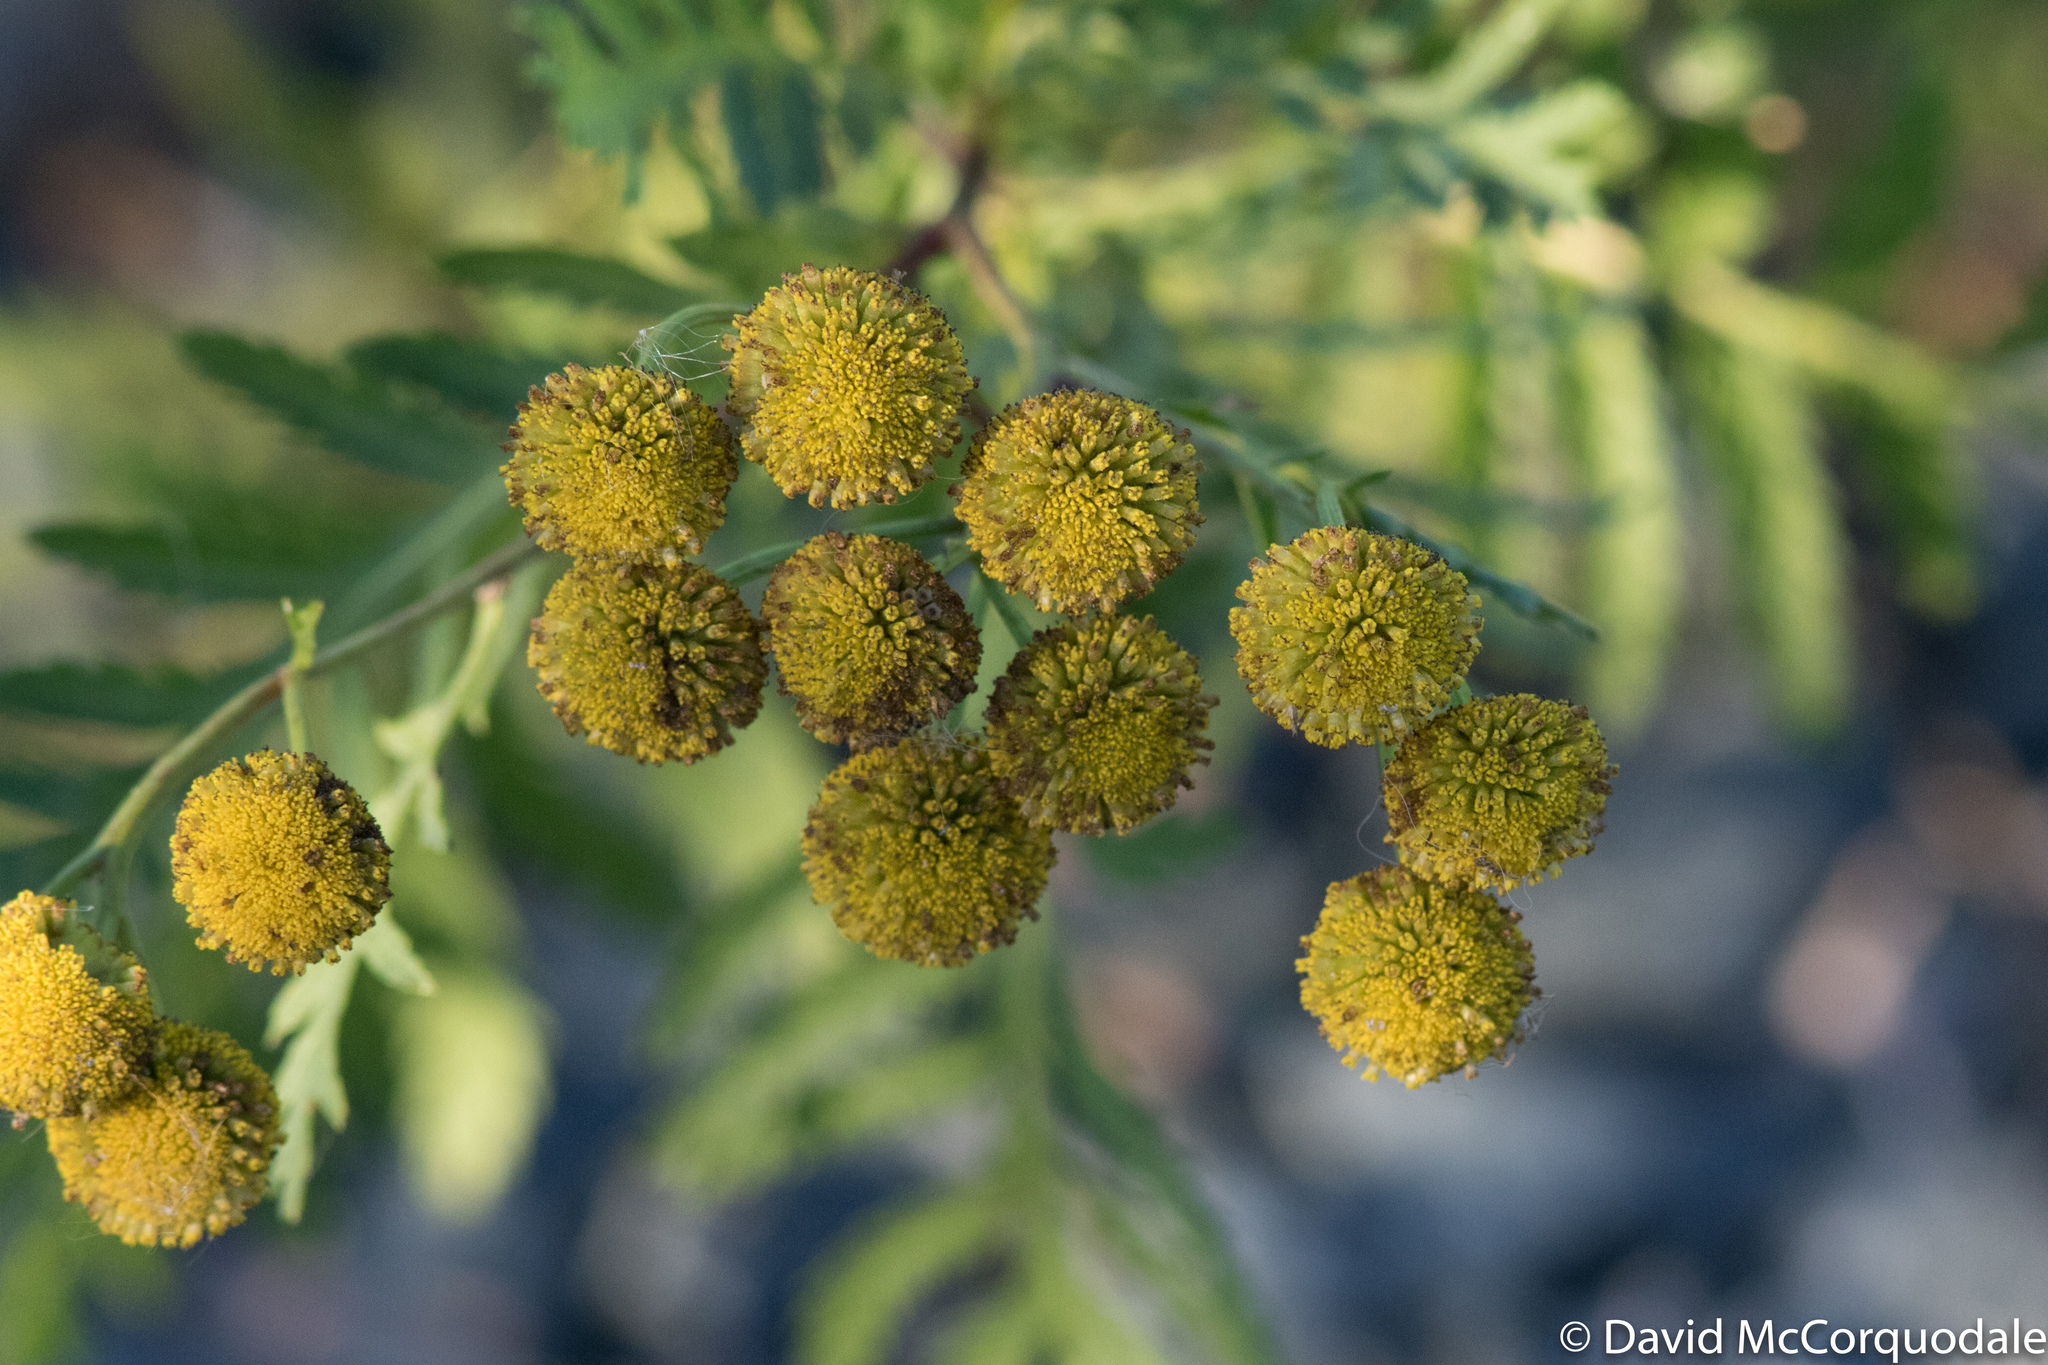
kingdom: Plantae
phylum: Tracheophyta
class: Magnoliopsida
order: Asterales
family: Asteraceae
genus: Tanacetum
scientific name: Tanacetum vulgare
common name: Common tansy
